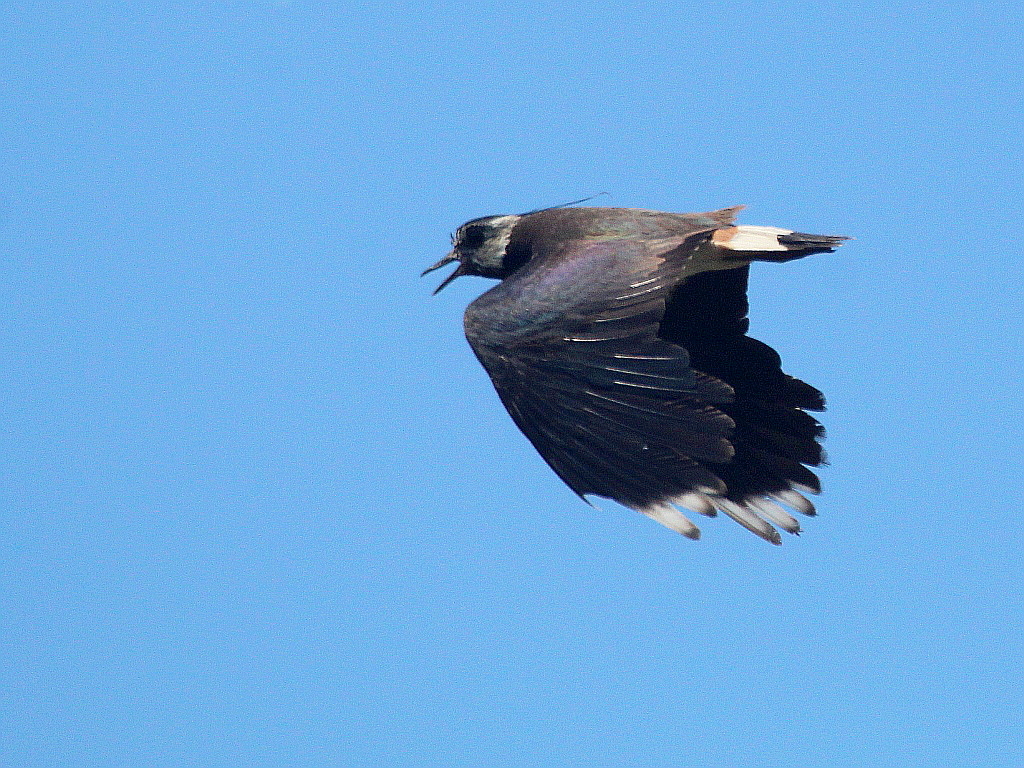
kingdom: Animalia
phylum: Chordata
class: Aves
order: Charadriiformes
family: Charadriidae
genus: Vanellus
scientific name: Vanellus vanellus
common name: Northern lapwing
